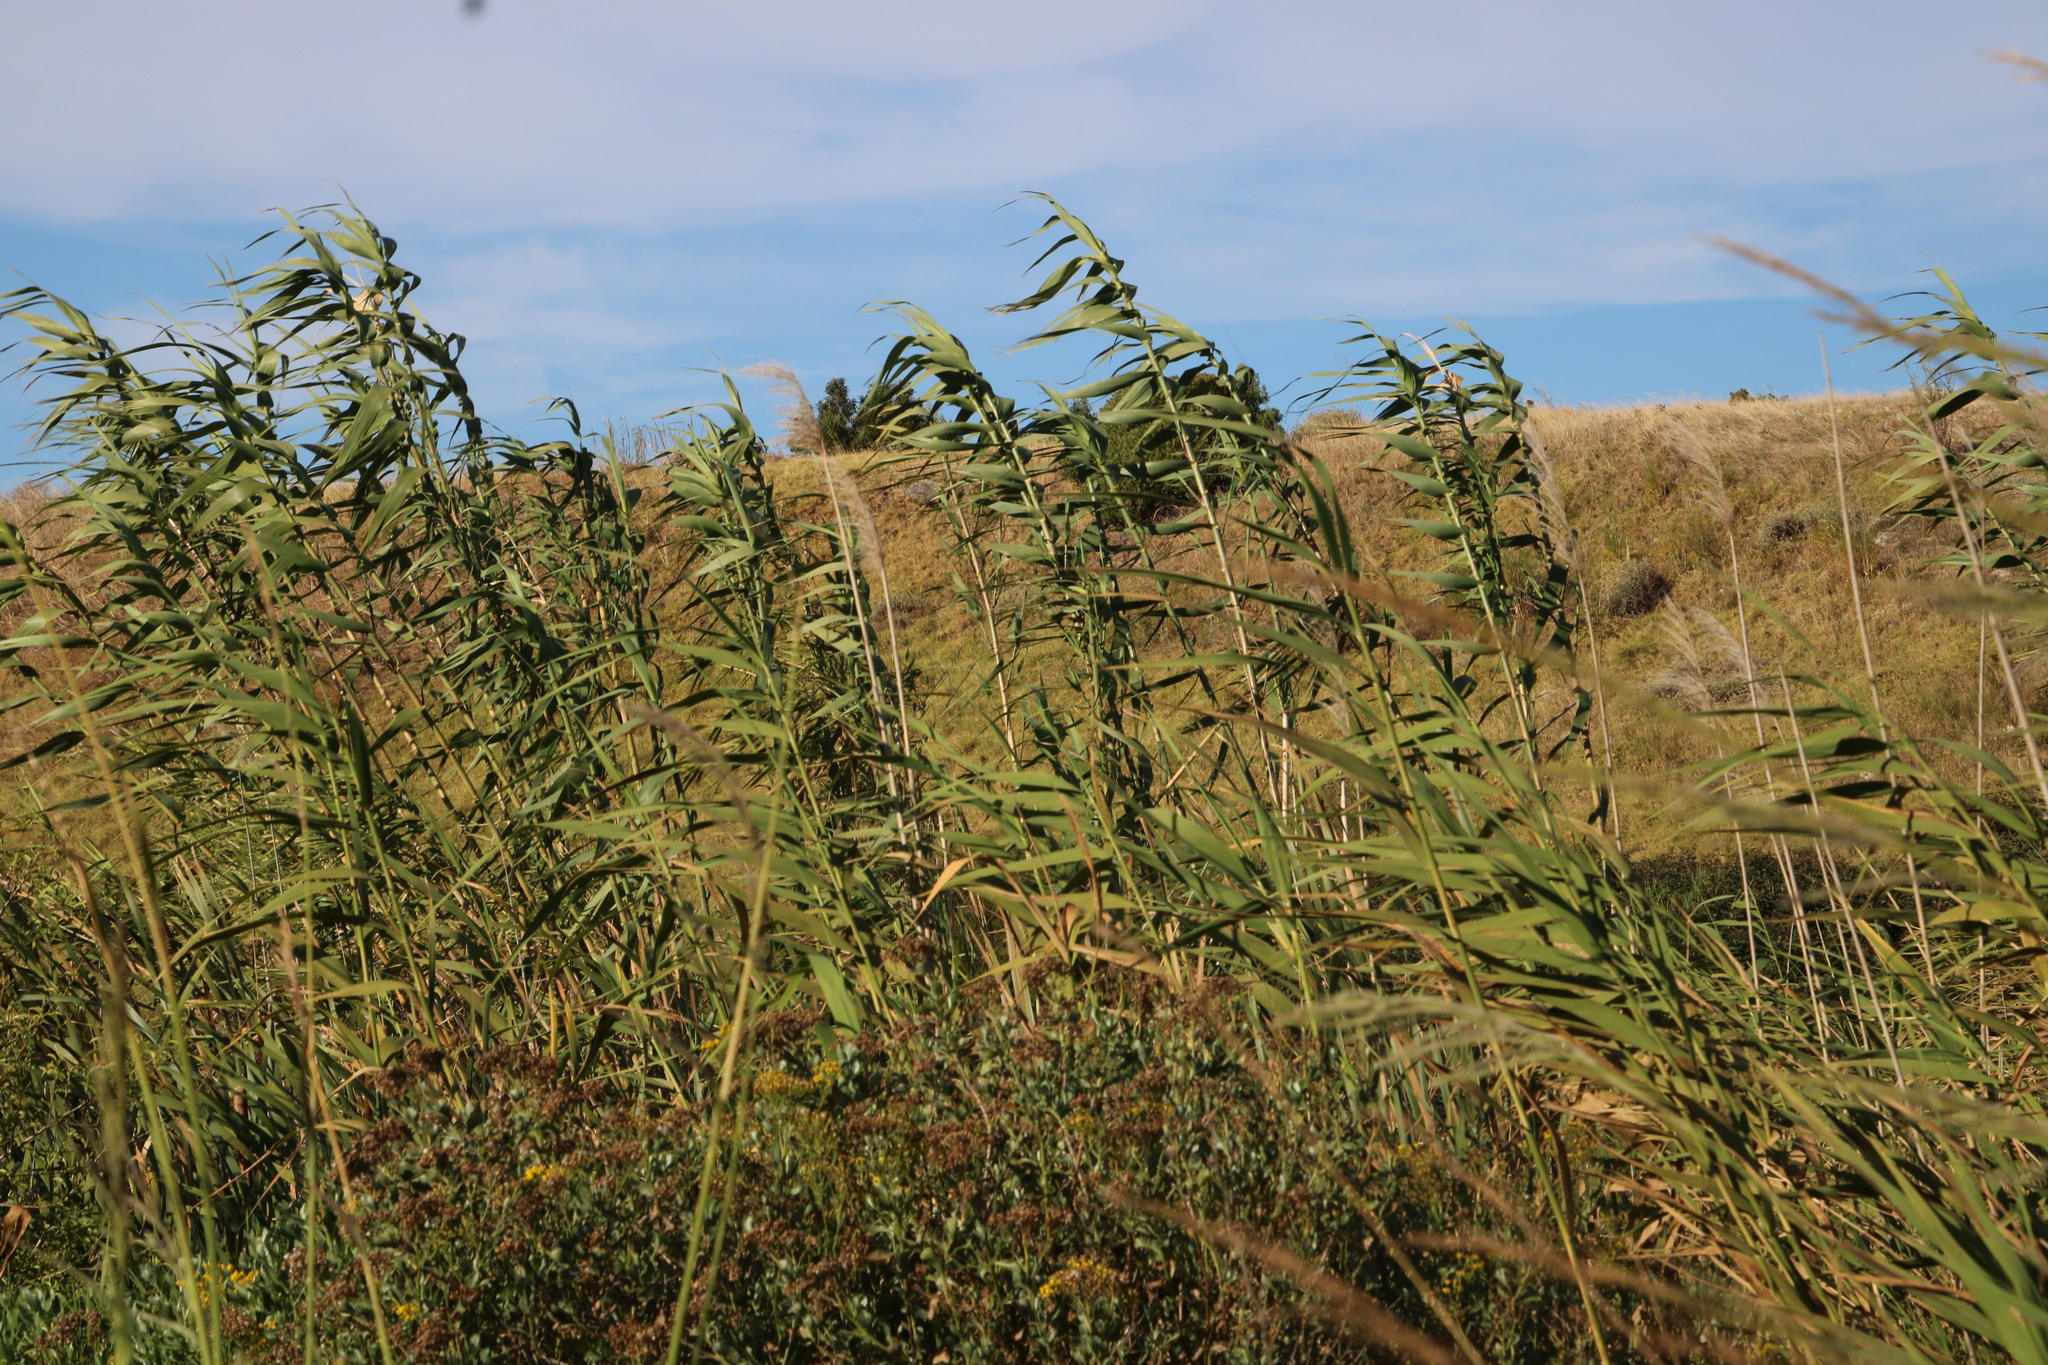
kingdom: Plantae
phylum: Tracheophyta
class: Liliopsida
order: Poales
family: Poaceae
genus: Arundo
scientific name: Arundo donax
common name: Giant reed
